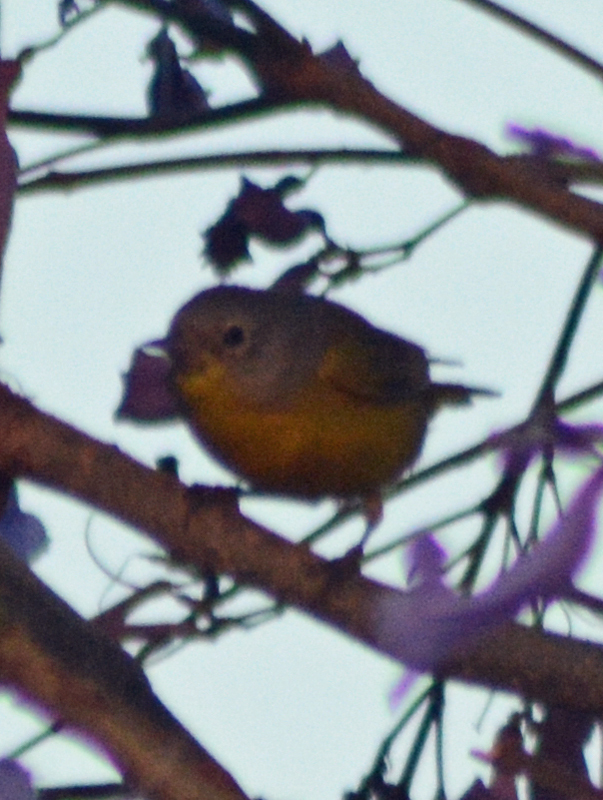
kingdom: Animalia
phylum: Chordata
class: Aves
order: Passeriformes
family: Parulidae
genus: Leiothlypis
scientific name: Leiothlypis ruficapilla
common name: Nashville warbler
